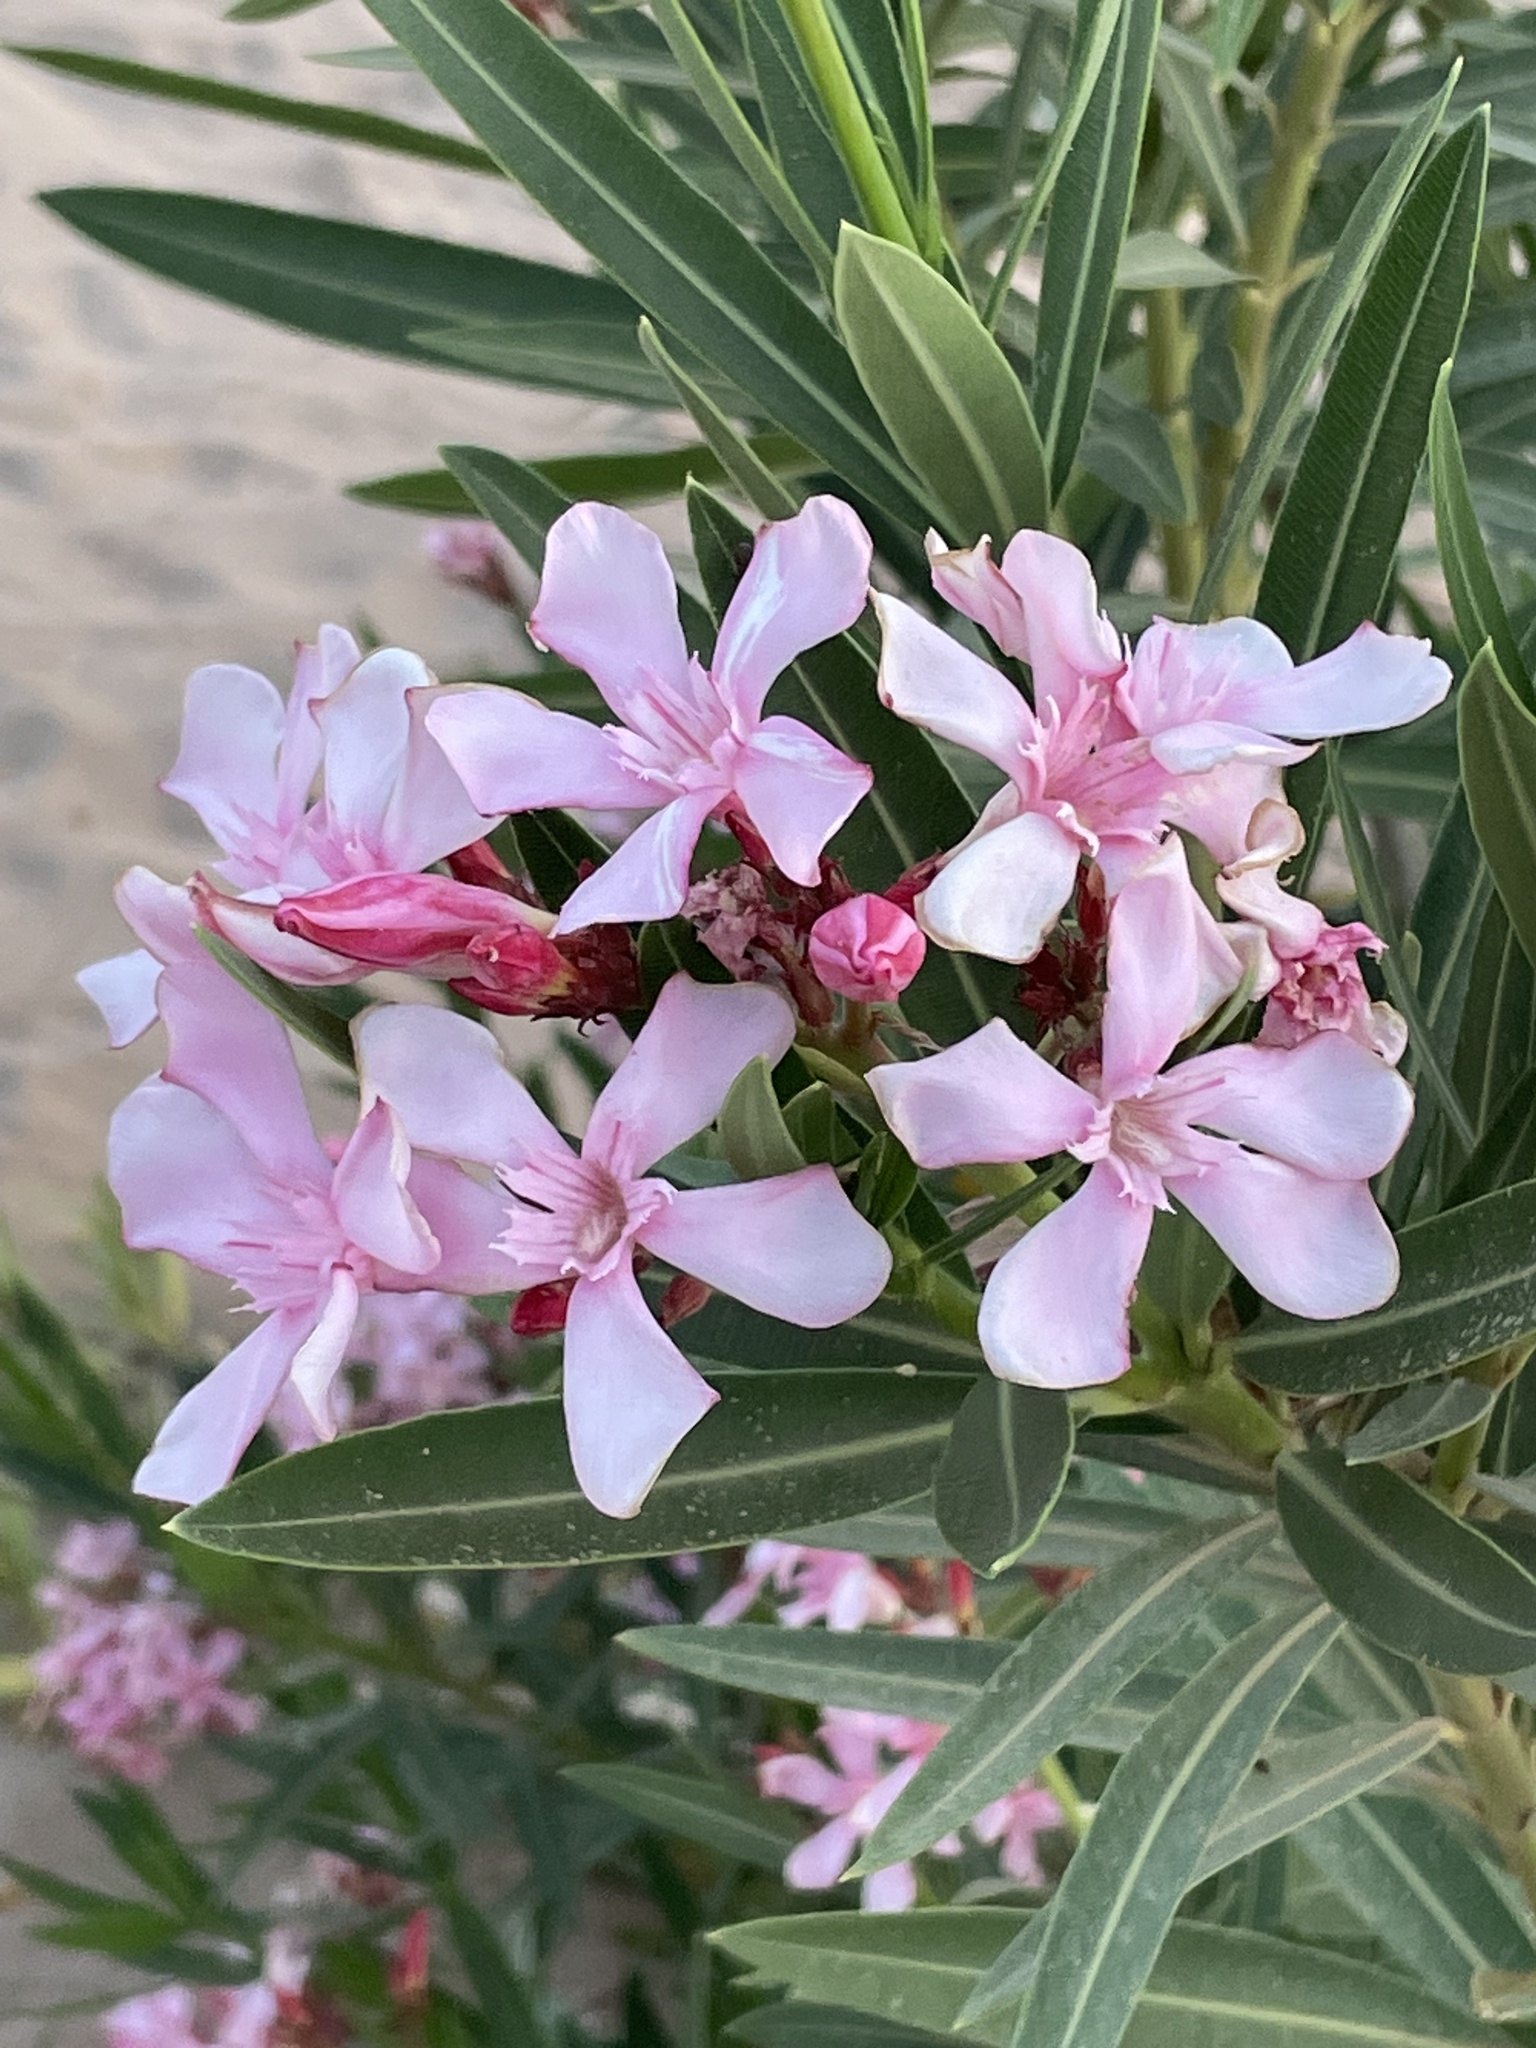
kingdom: Plantae
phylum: Tracheophyta
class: Magnoliopsida
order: Gentianales
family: Apocynaceae
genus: Nerium
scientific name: Nerium oleander
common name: Oleander
